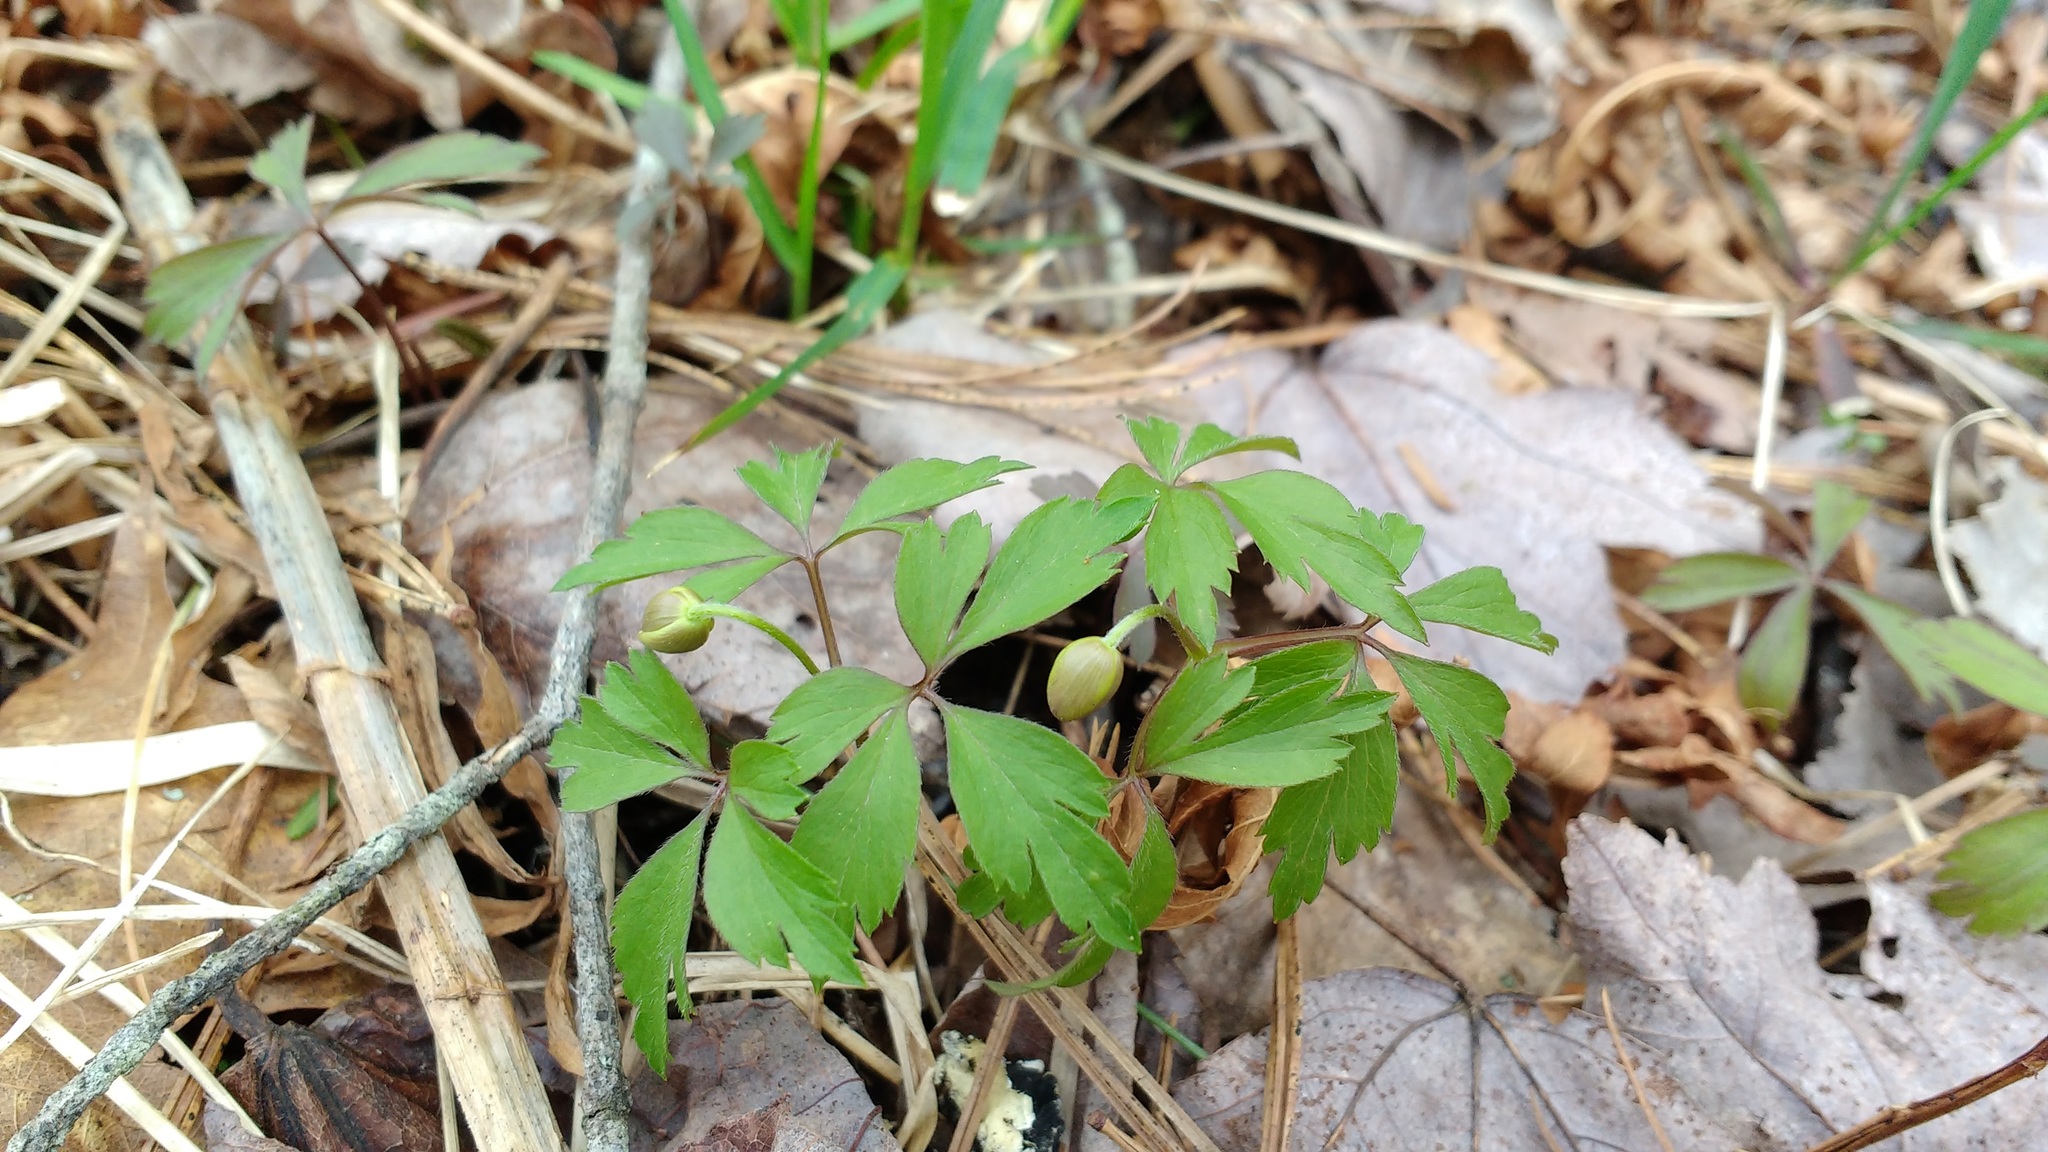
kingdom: Plantae
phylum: Tracheophyta
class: Magnoliopsida
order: Ranunculales
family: Ranunculaceae
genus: Anemone
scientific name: Anemone quinquefolia
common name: Wood anemone
